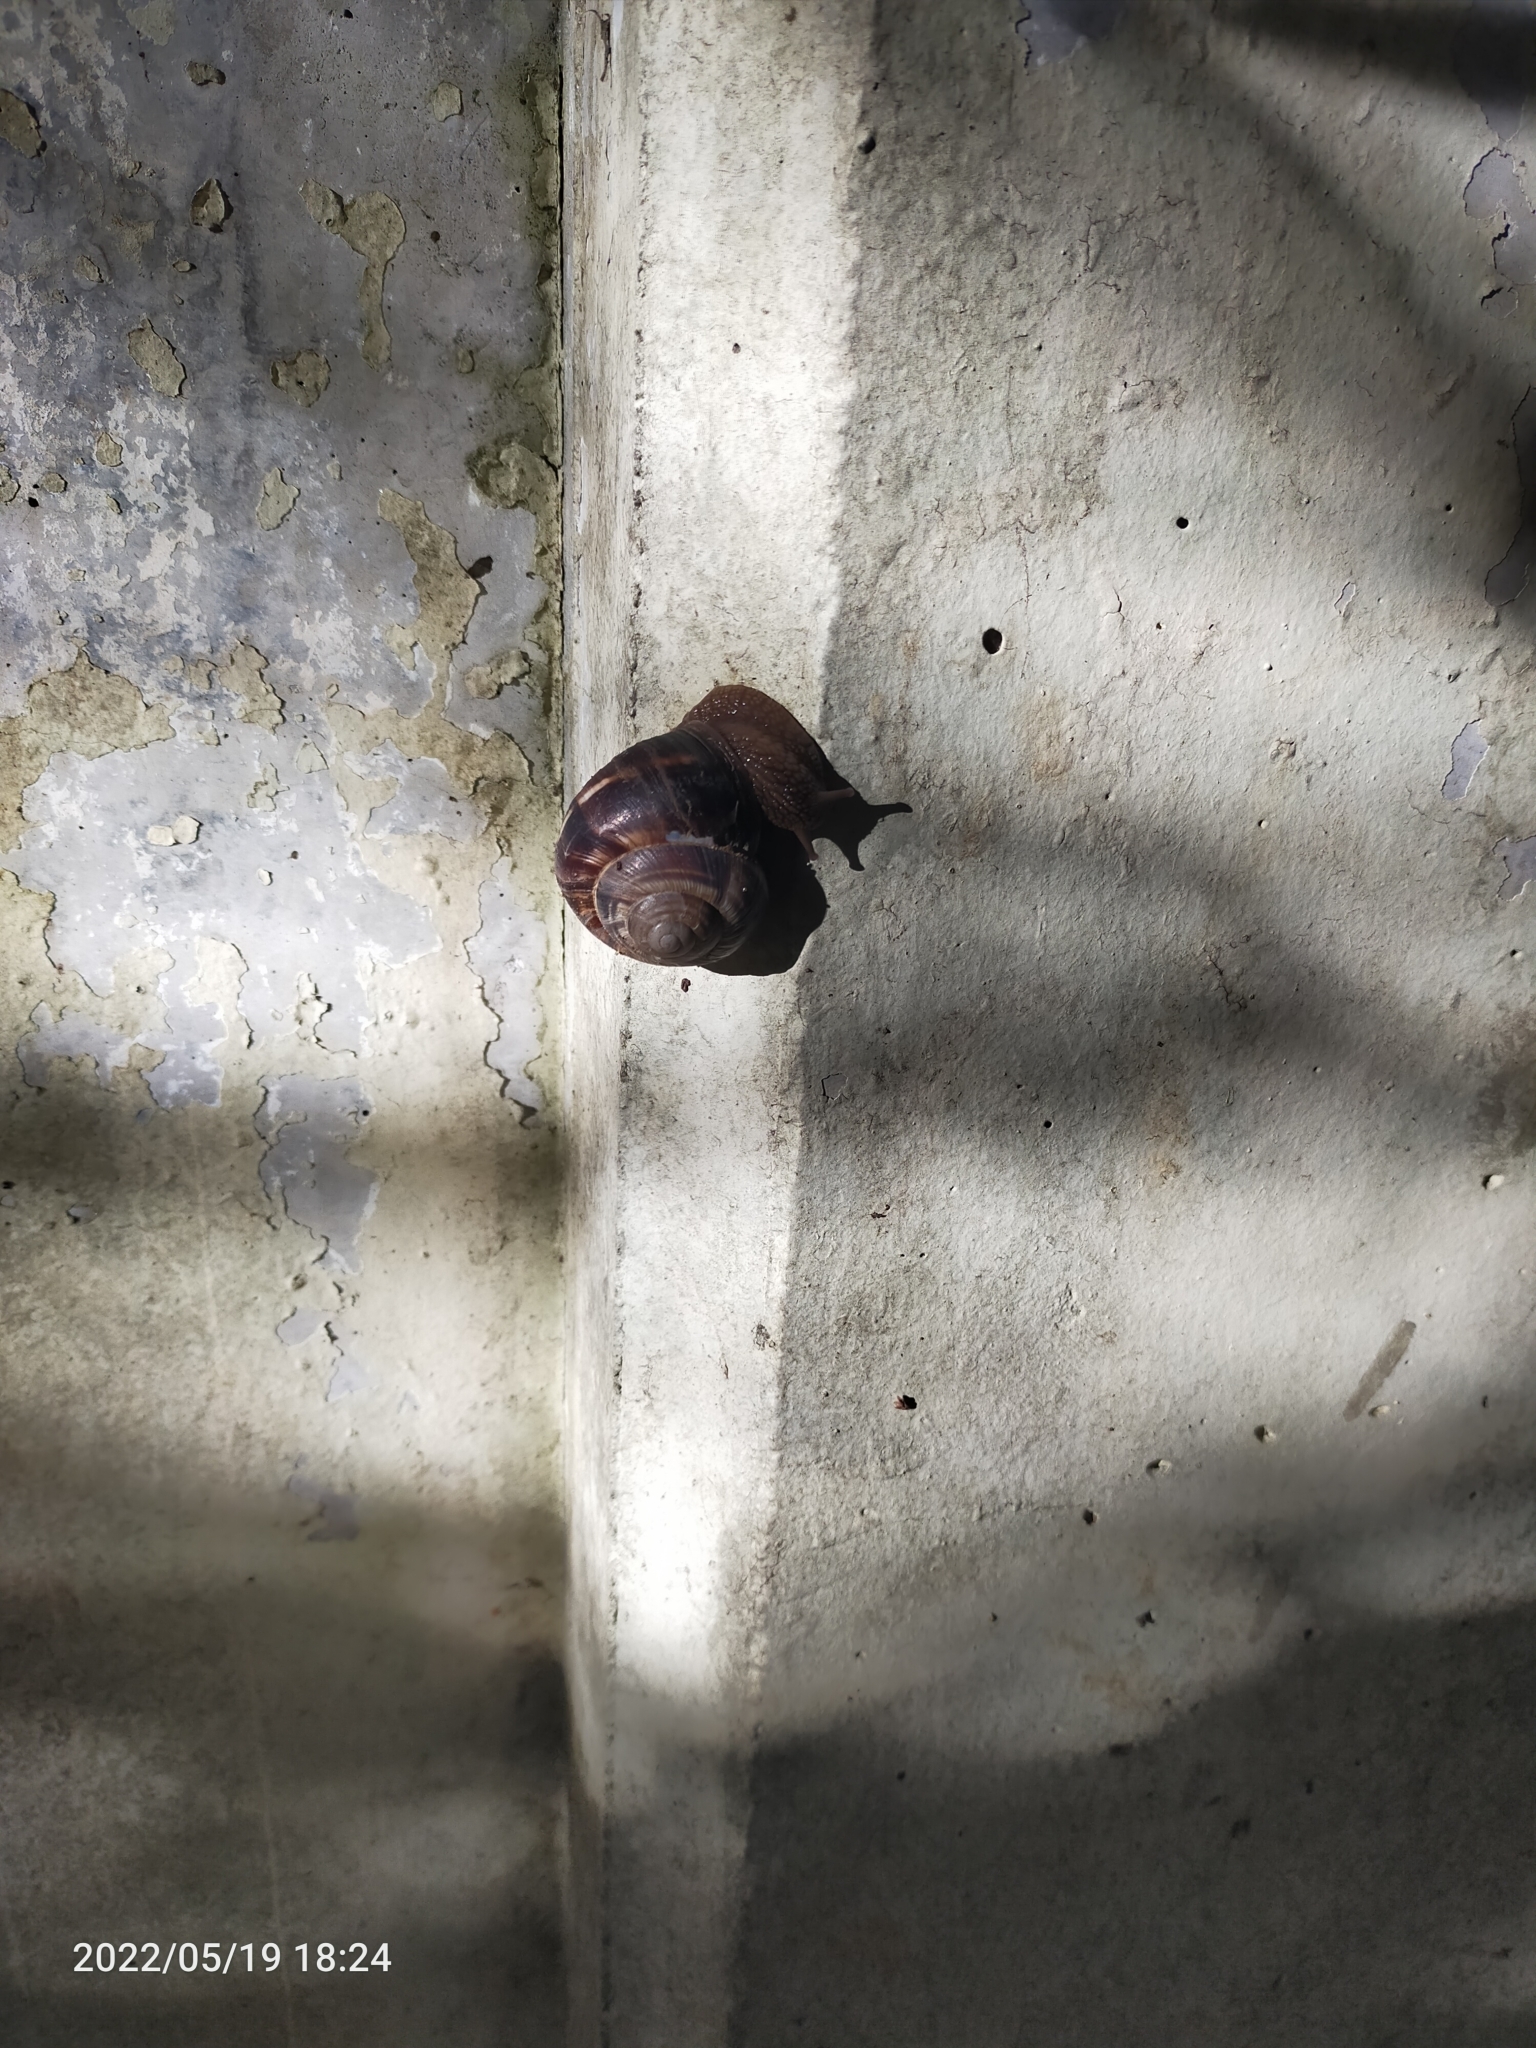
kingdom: Animalia
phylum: Mollusca
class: Gastropoda
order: Stylommatophora
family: Helicidae
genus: Helix
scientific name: Helix lucorum
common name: Turkish snail
